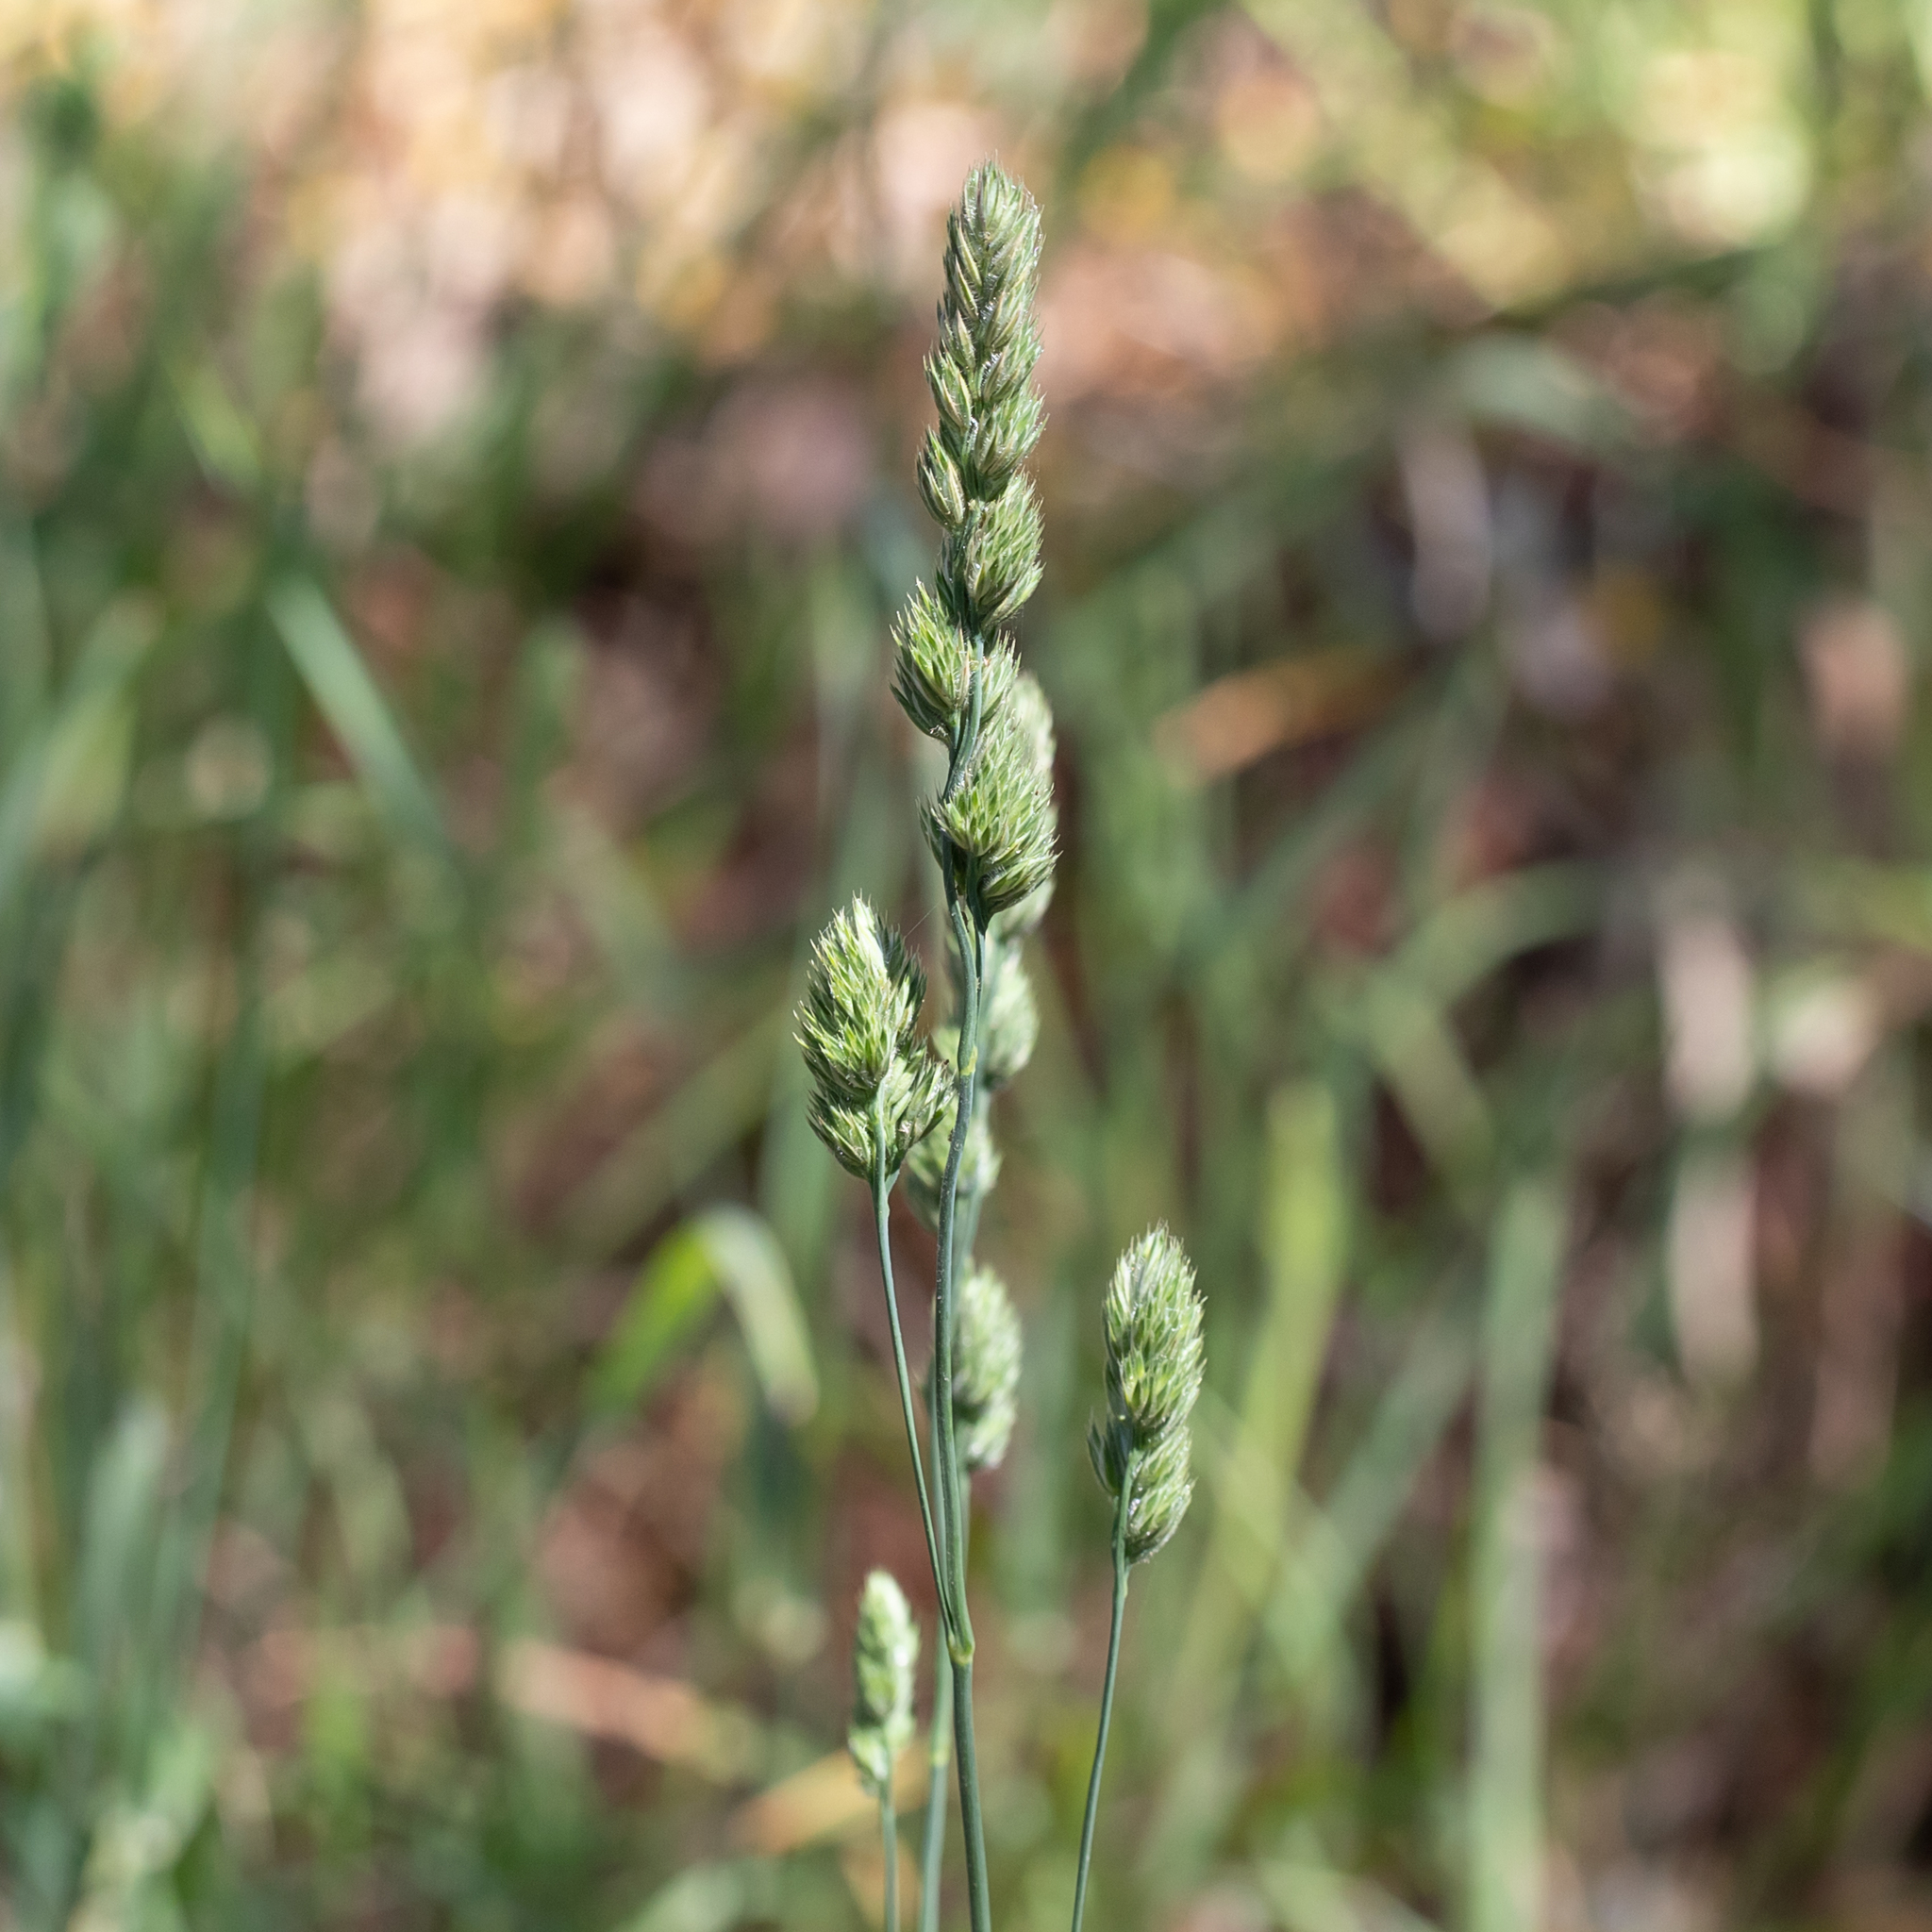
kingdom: Plantae
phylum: Tracheophyta
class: Liliopsida
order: Poales
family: Poaceae
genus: Dactylis
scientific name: Dactylis glomerata
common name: Orchardgrass
